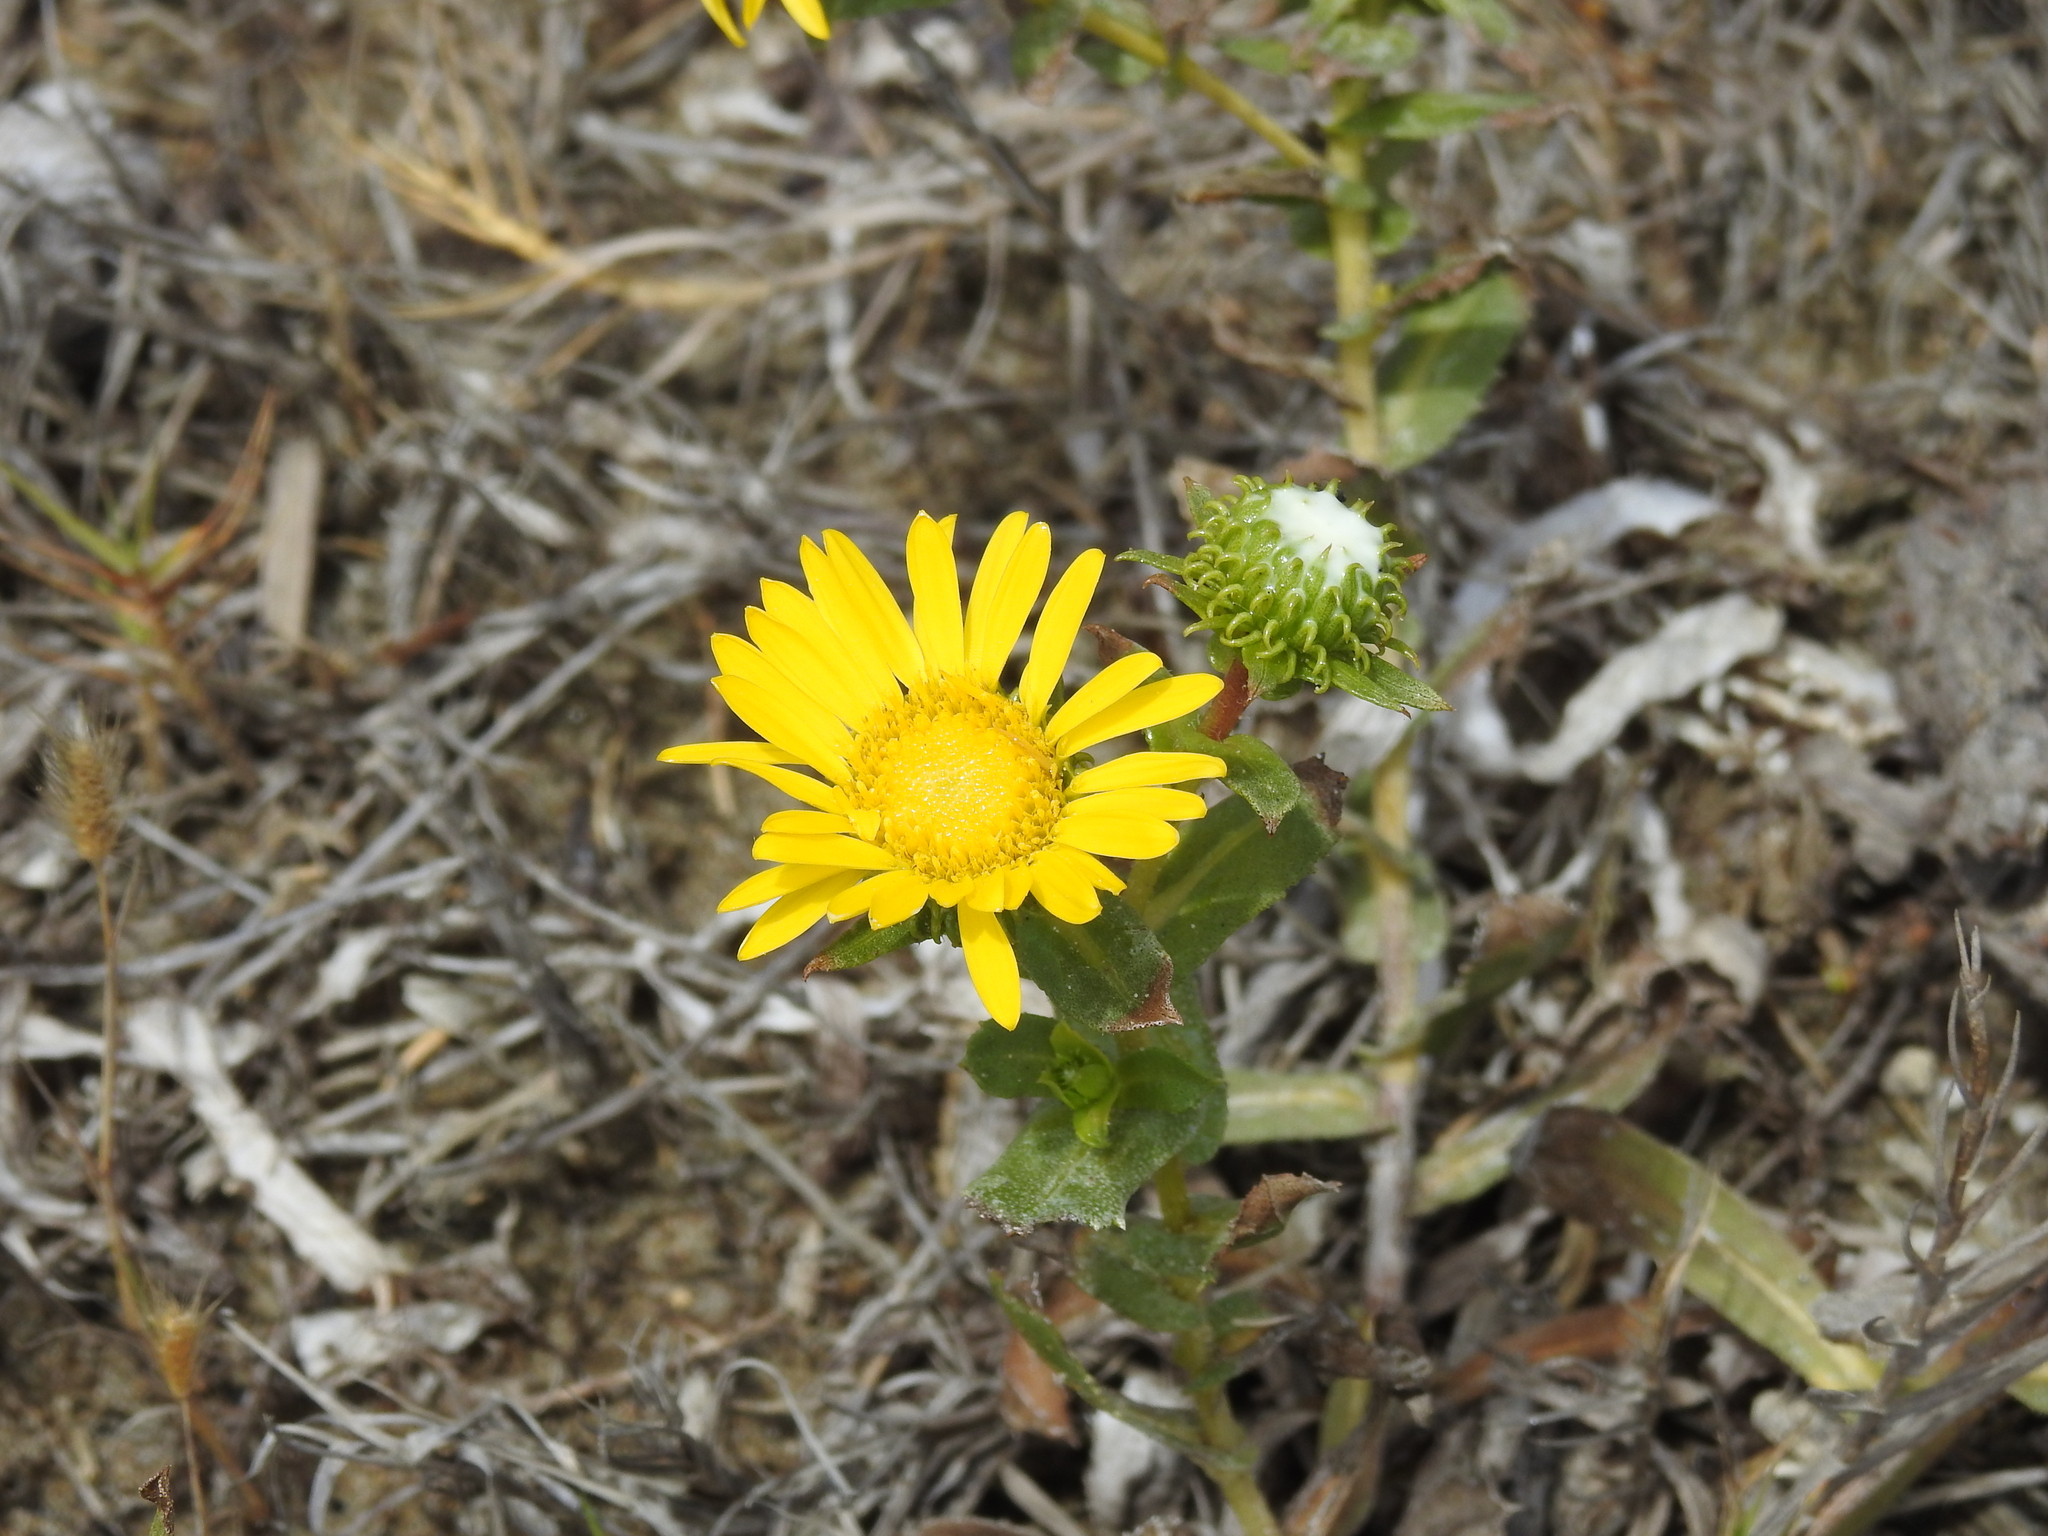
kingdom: Plantae
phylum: Tracheophyta
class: Magnoliopsida
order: Asterales
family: Asteraceae
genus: Grindelia
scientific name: Grindelia hirsutula
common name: Hairy gumweed
